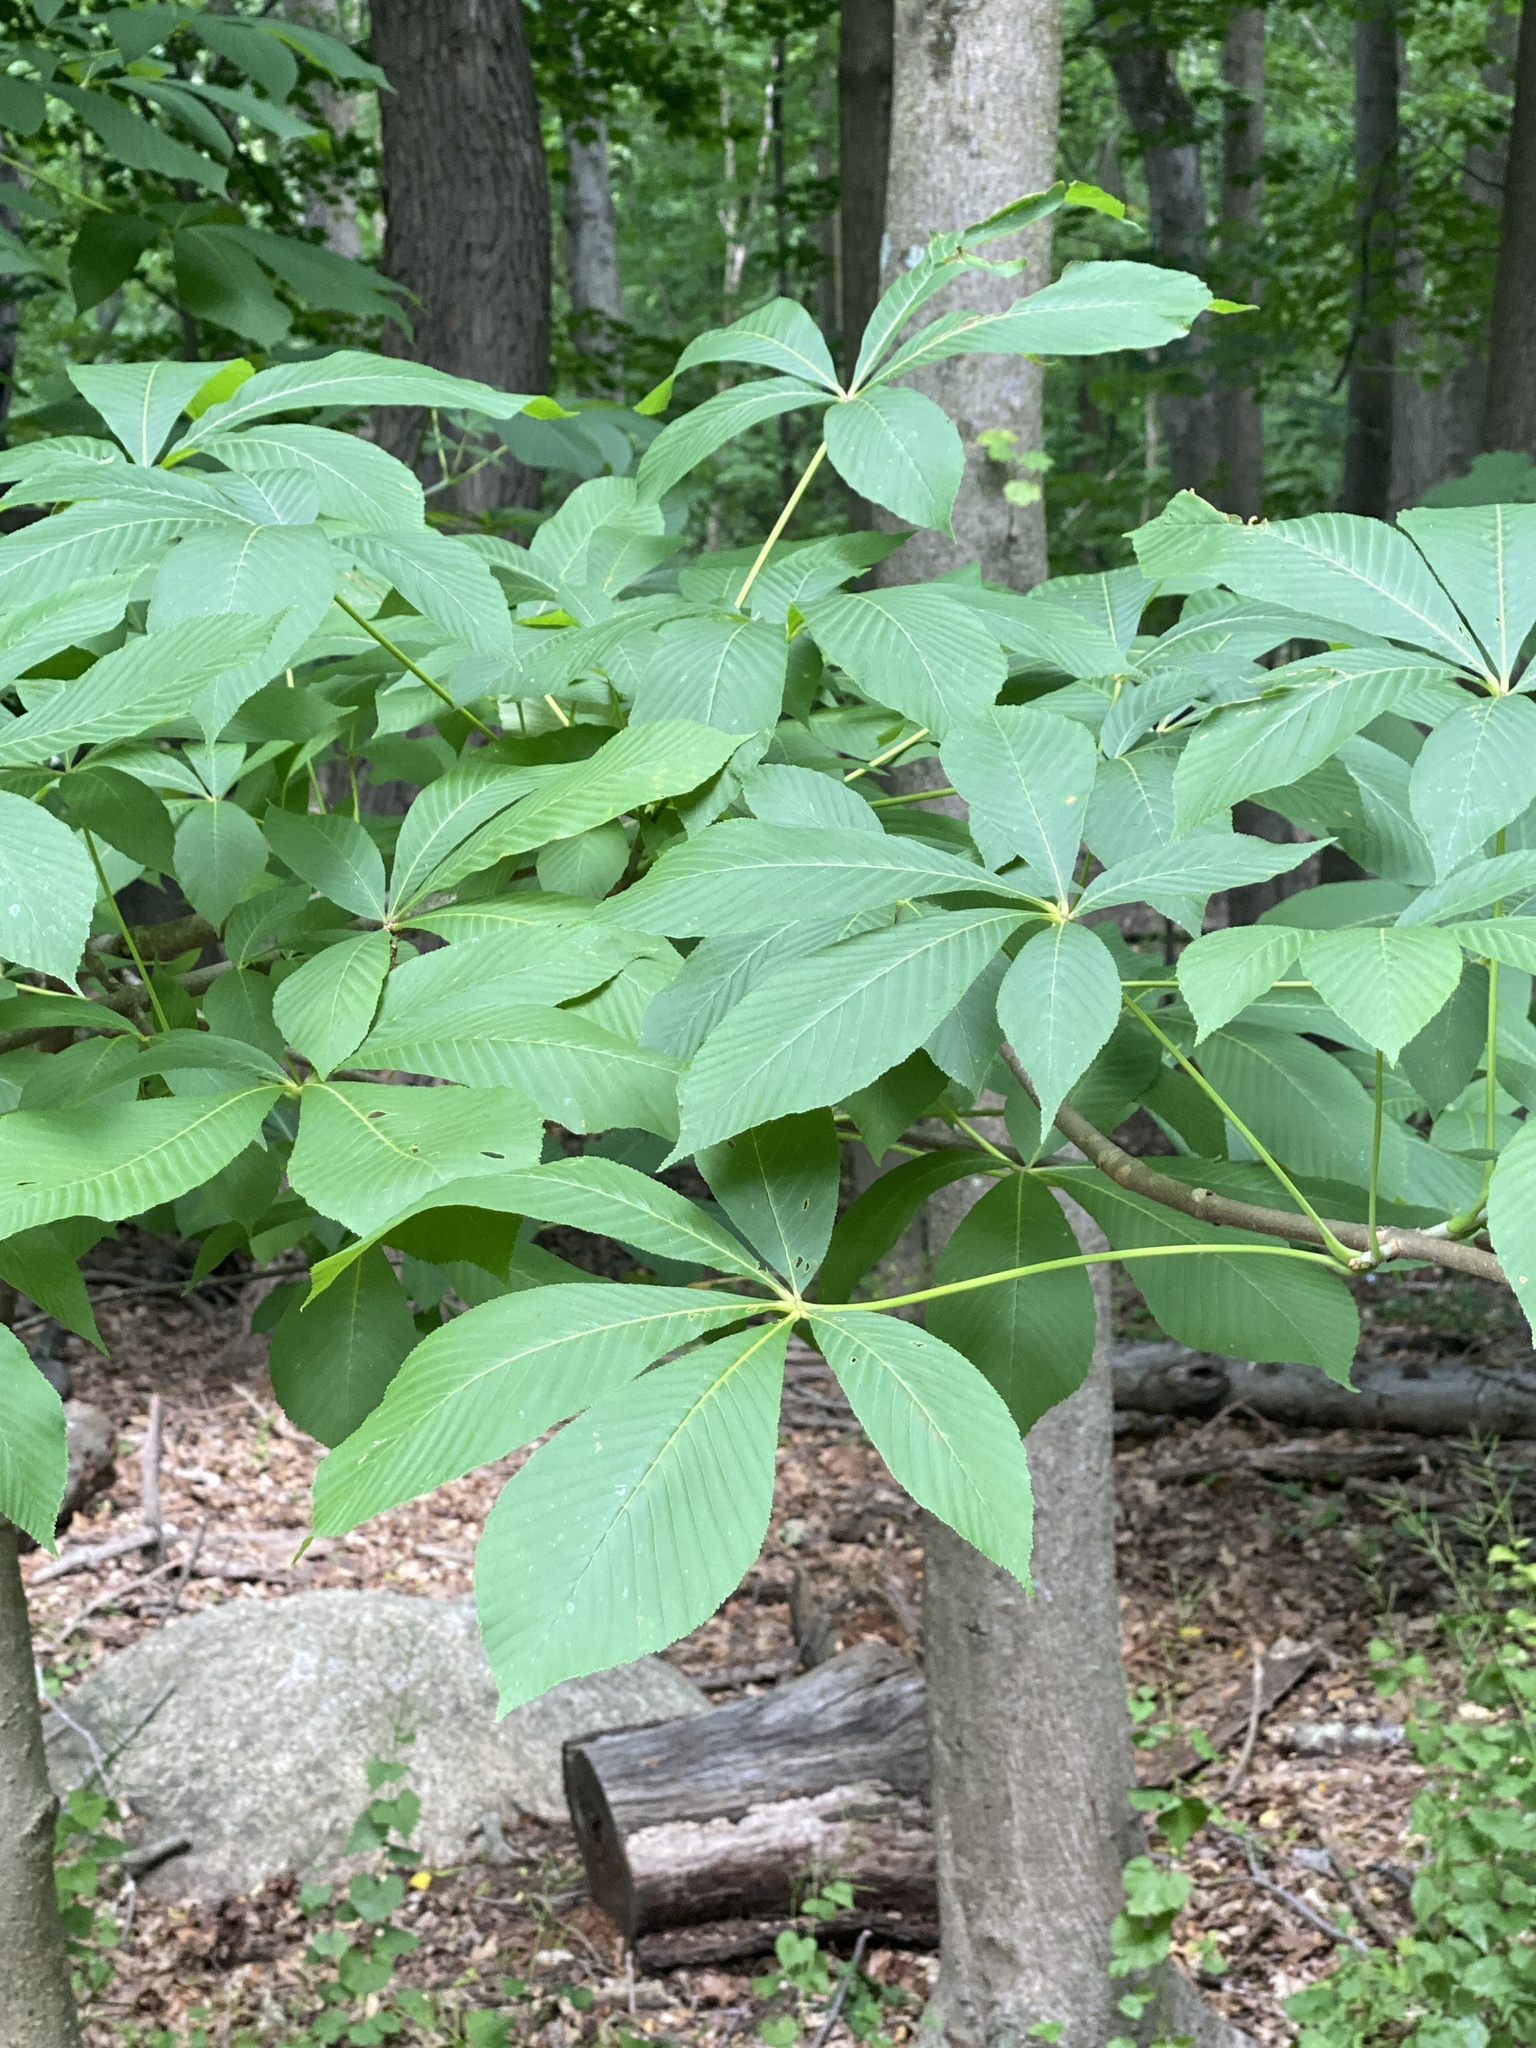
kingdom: Plantae
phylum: Tracheophyta
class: Magnoliopsida
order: Sapindales
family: Sapindaceae
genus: Aesculus
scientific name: Aesculus flava
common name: Yellow buckeye
